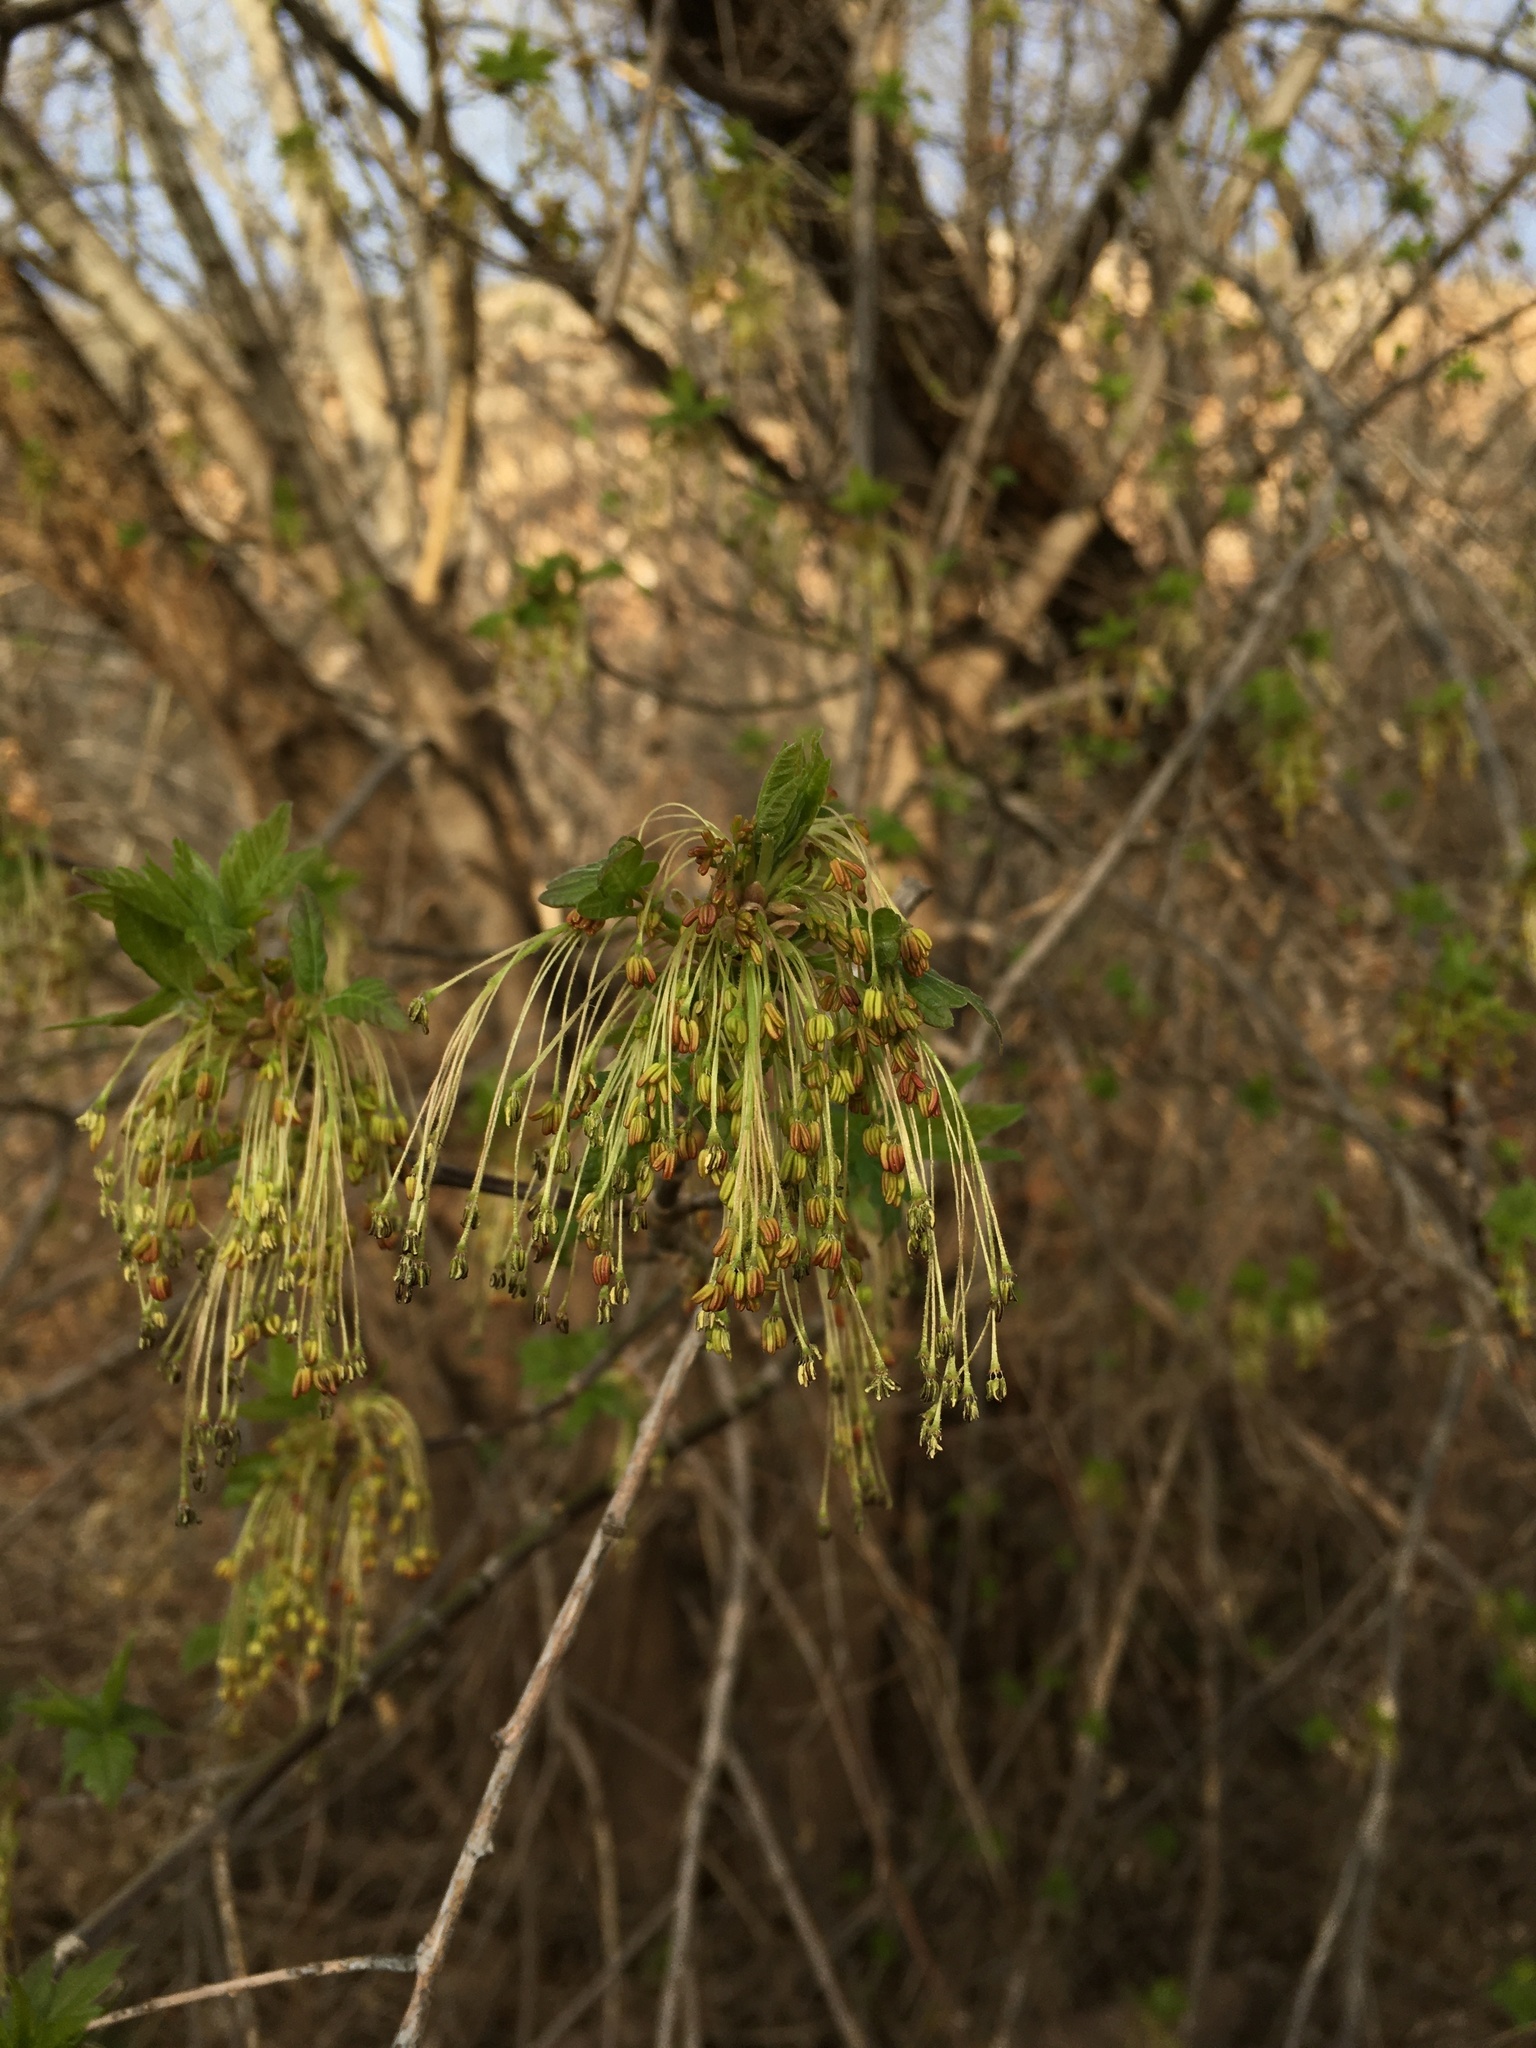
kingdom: Plantae
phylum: Tracheophyta
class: Magnoliopsida
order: Sapindales
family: Sapindaceae
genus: Acer
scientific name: Acer negundo
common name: Ashleaf maple
